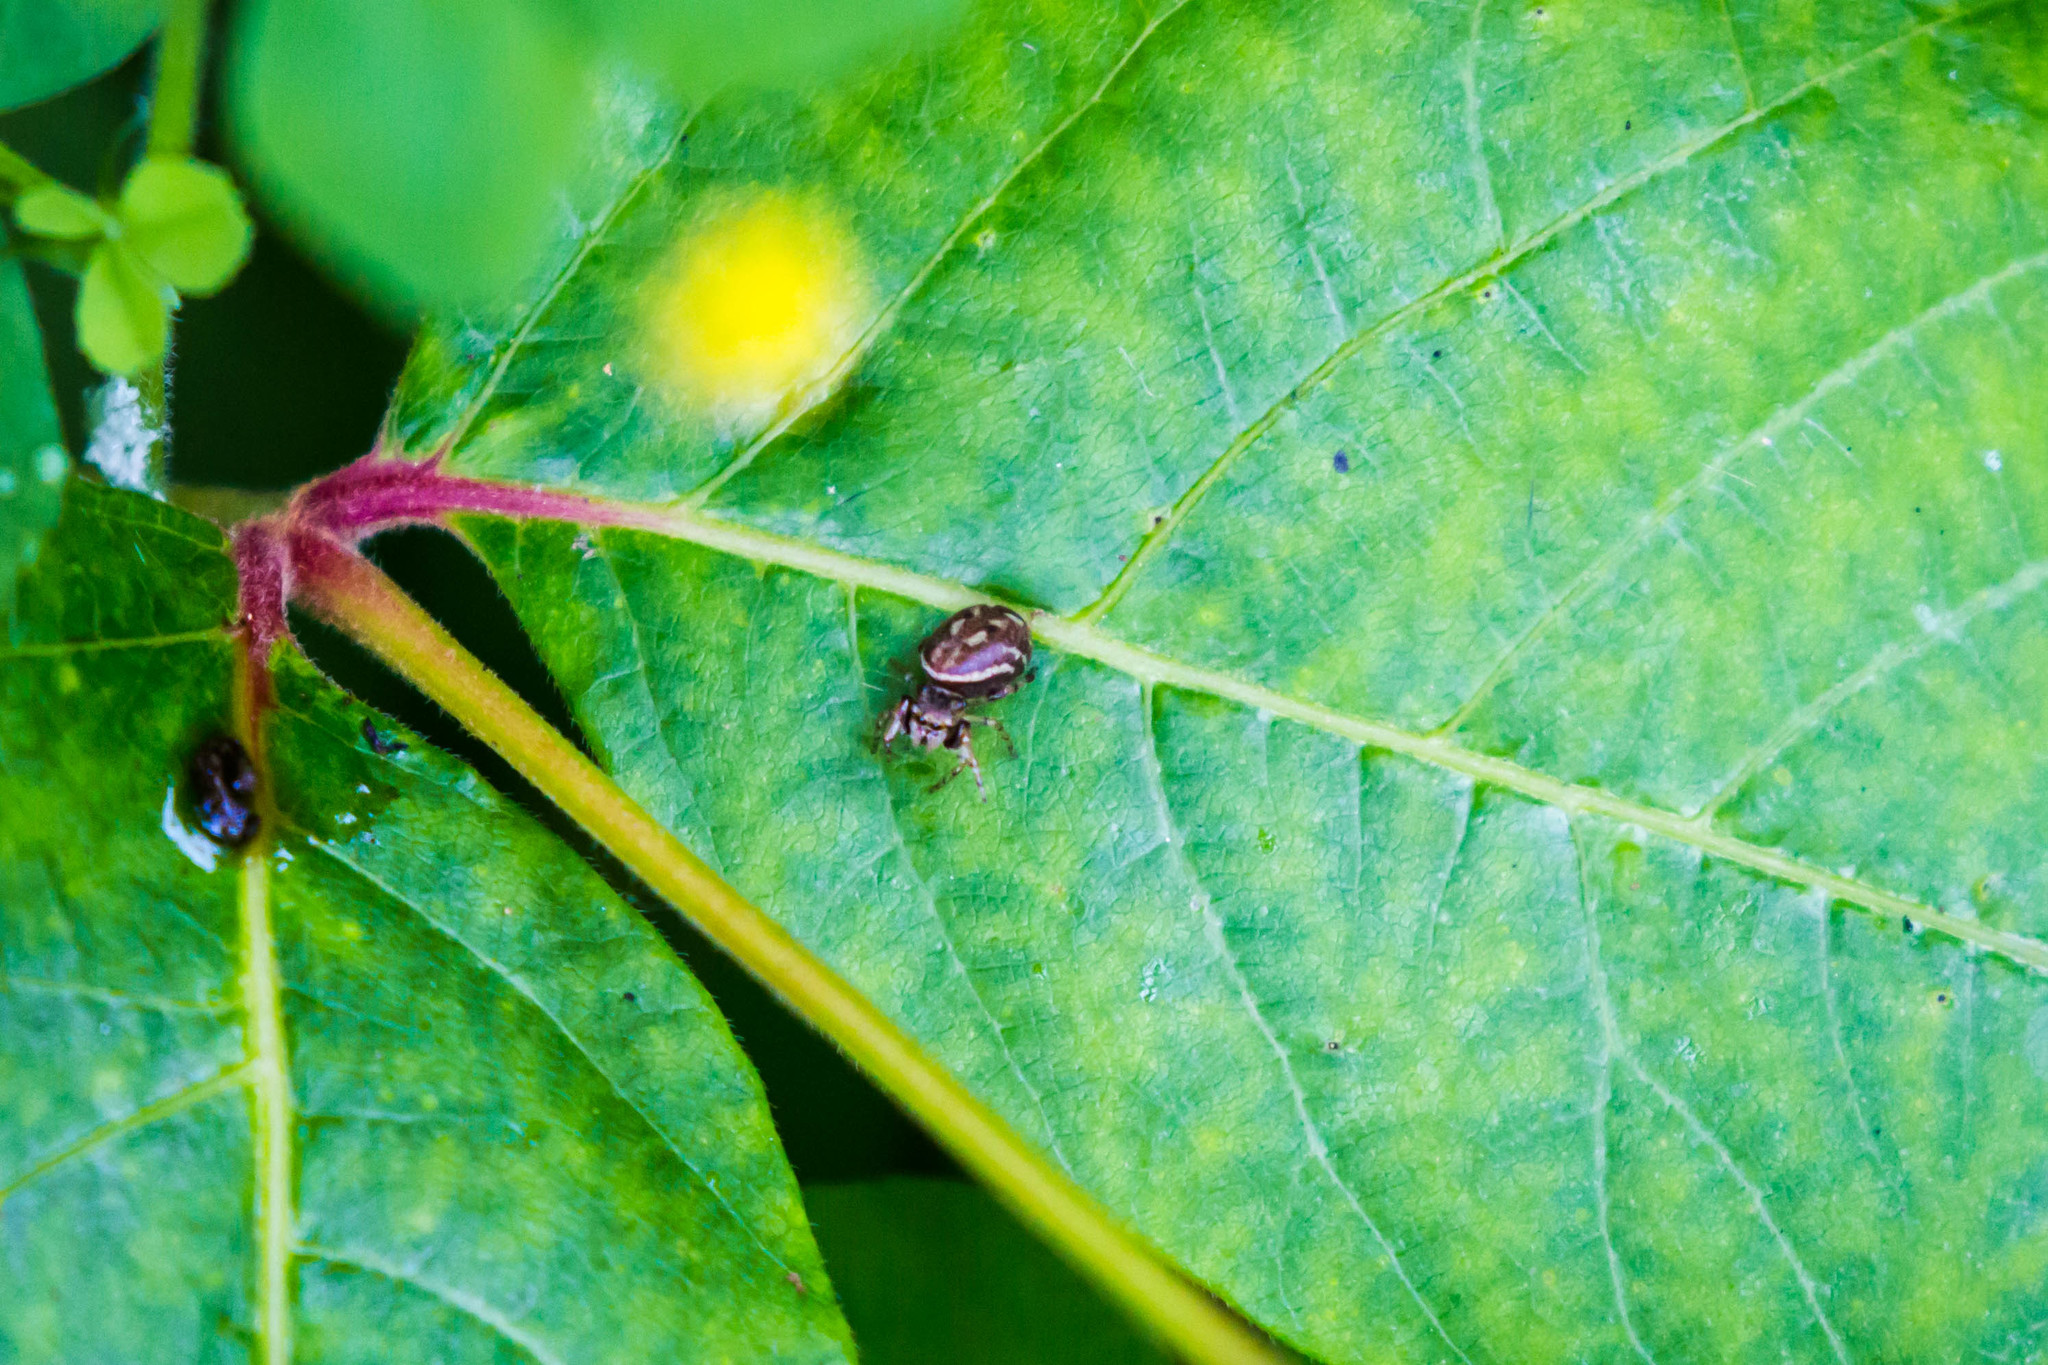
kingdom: Animalia
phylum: Arthropoda
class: Arachnida
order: Araneae
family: Salticidae
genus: Zygoballus
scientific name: Zygoballus rufipes
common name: Jumping spiders
